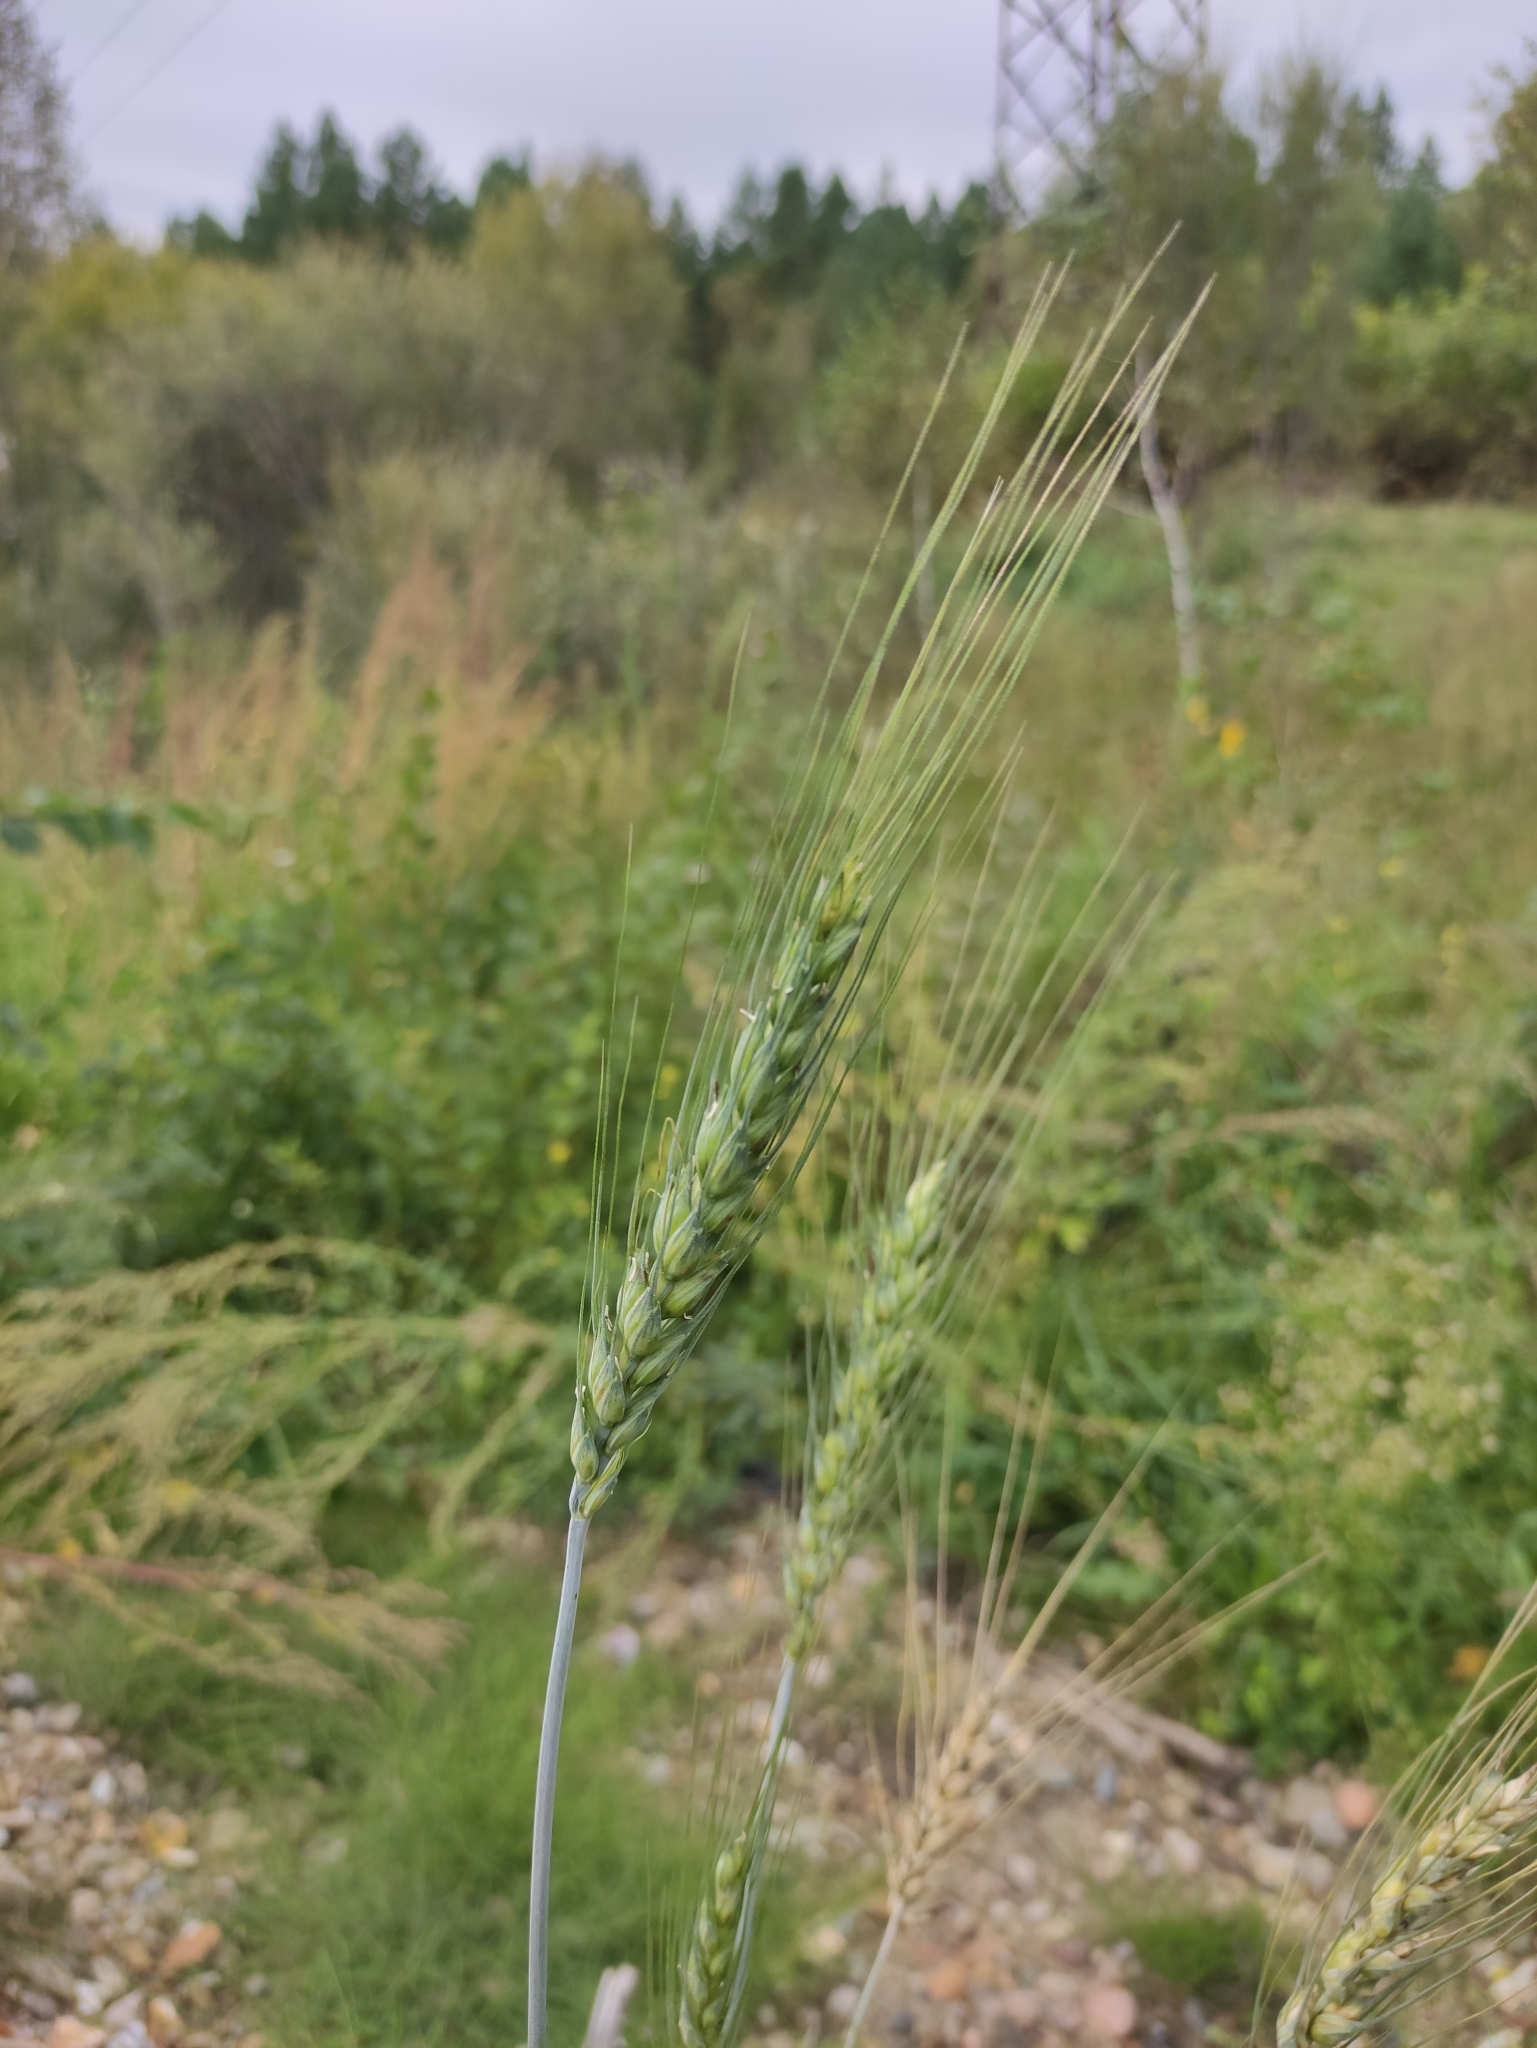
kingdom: Plantae
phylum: Tracheophyta
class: Liliopsida
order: Poales
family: Poaceae
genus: Triticum
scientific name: Triticum aestivum
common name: Common wheat
